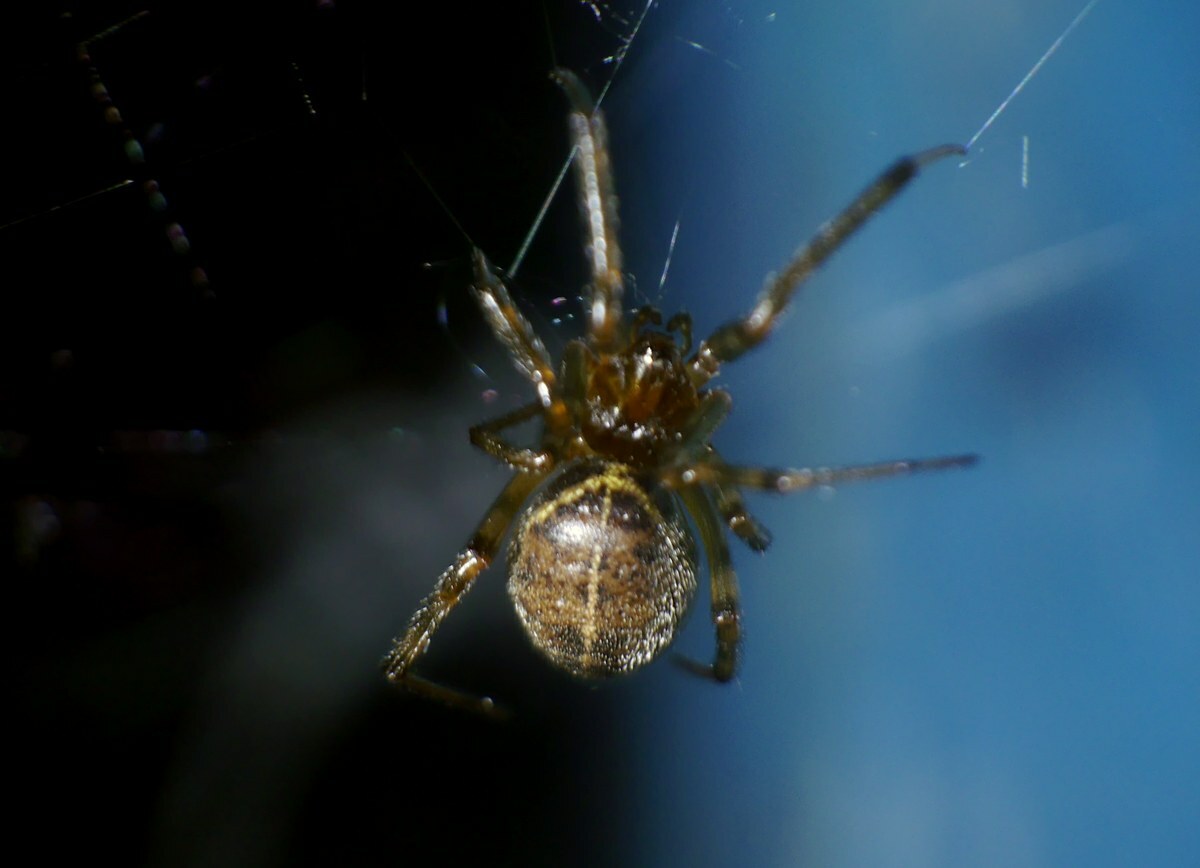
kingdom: Animalia
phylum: Arthropoda
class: Arachnida
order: Araneae
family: Theridiidae
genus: Steatoda
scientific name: Steatoda castanea
